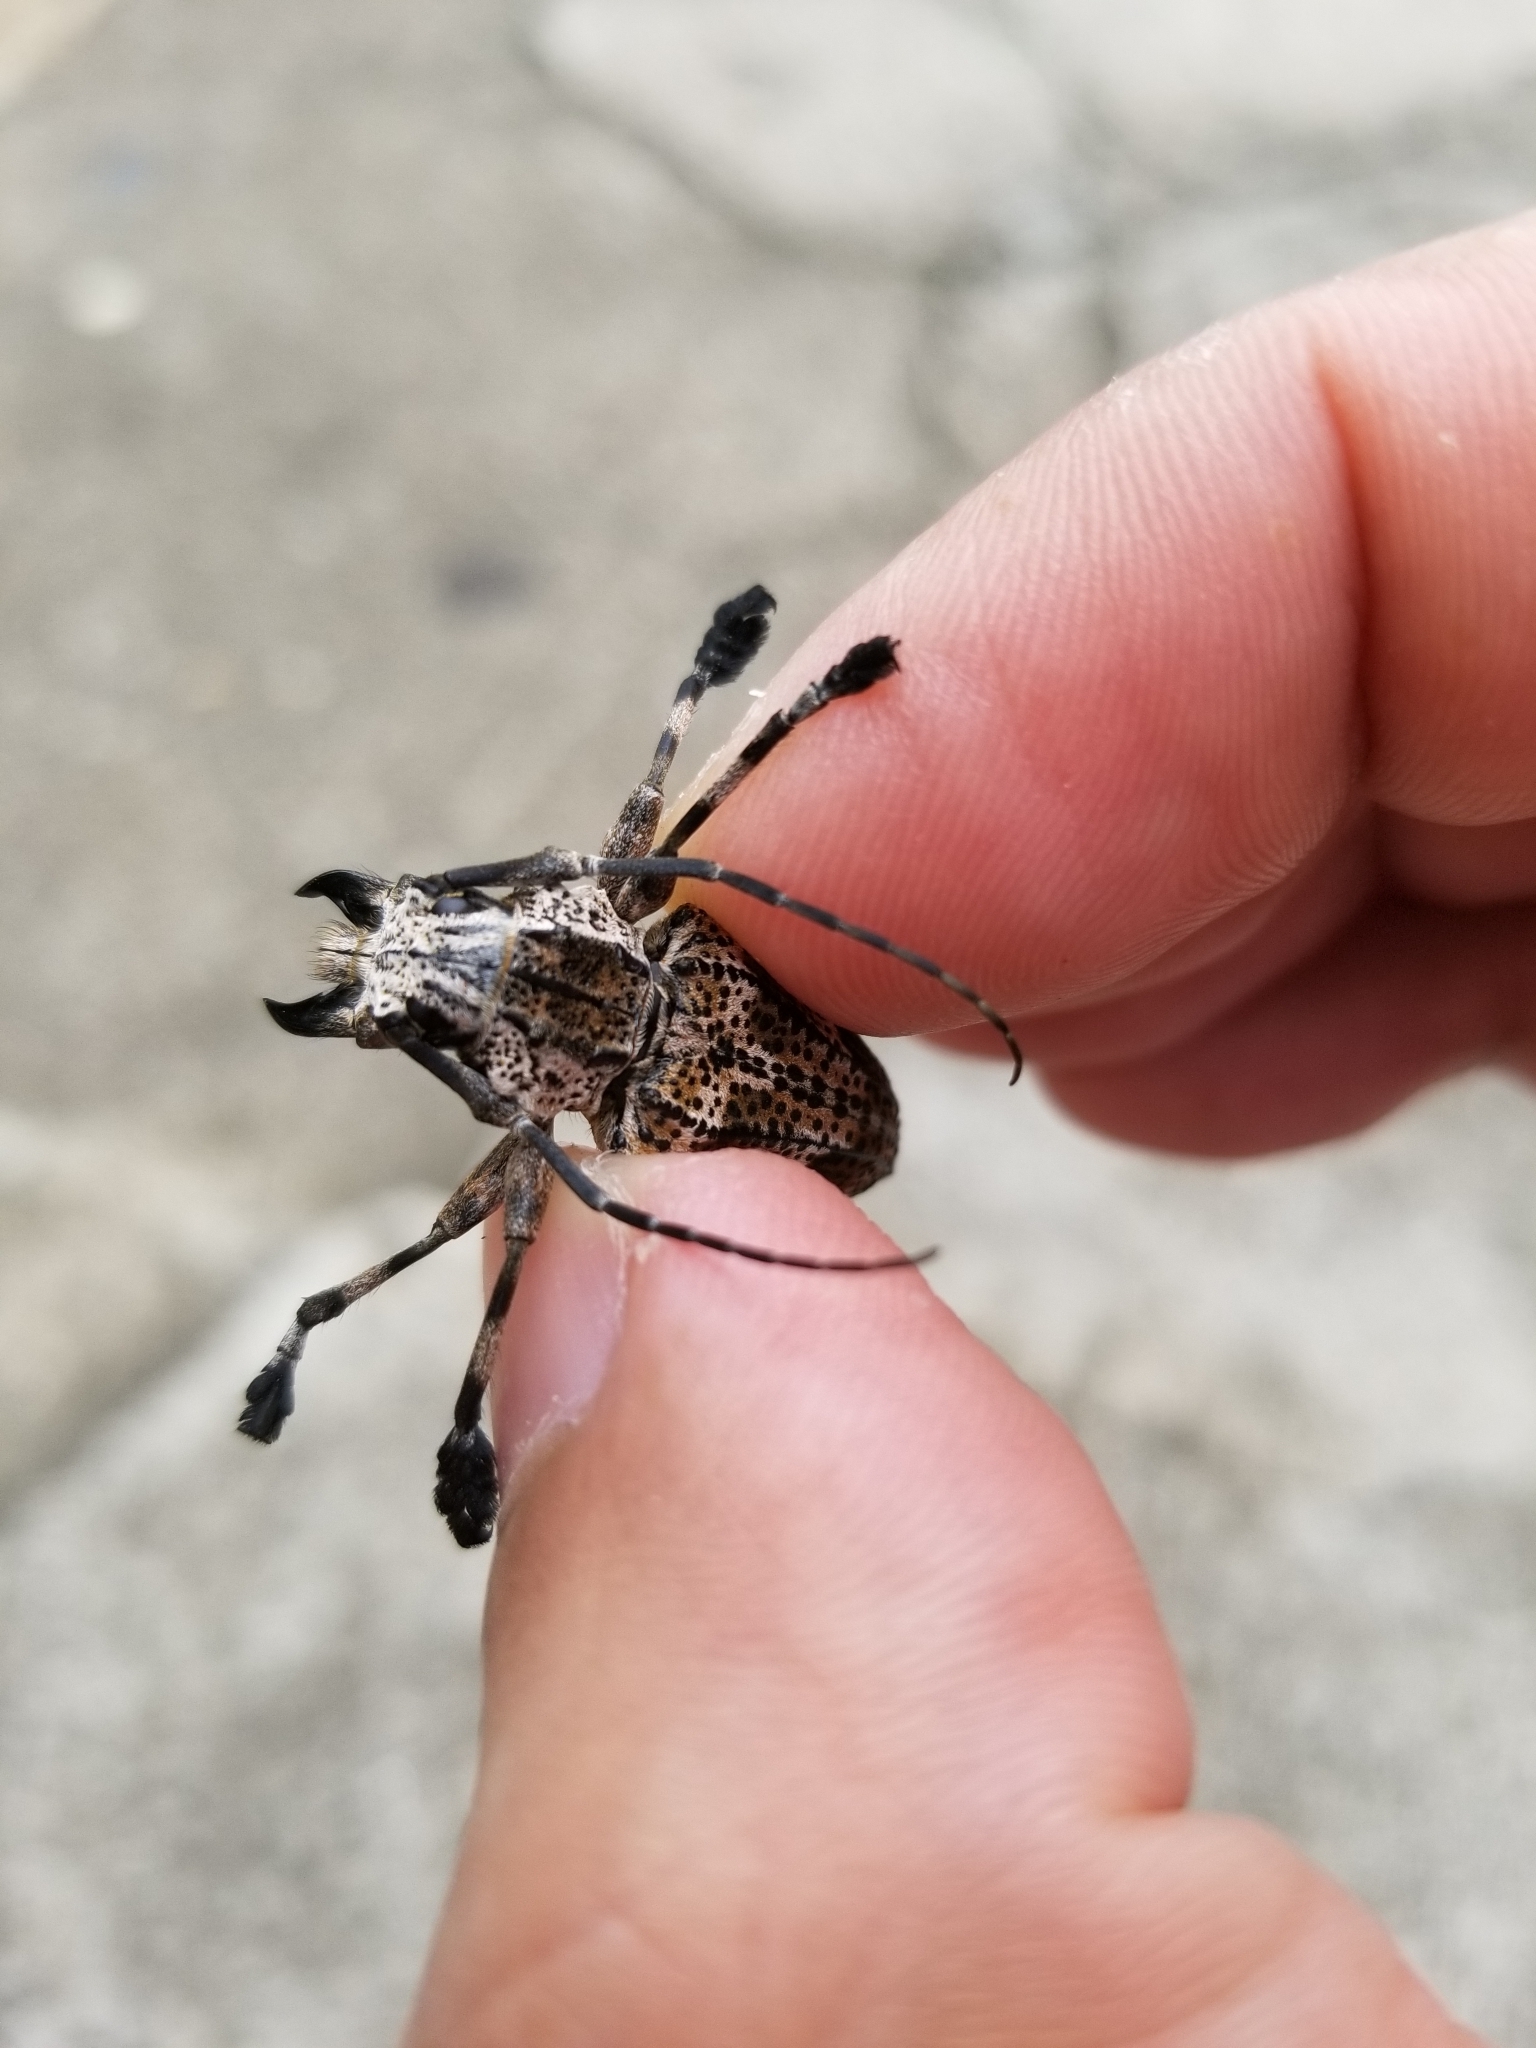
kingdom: Animalia
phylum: Arthropoda
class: Insecta
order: Coleoptera
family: Cerambycidae
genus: Steirastoma
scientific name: Steirastoma meridionale
